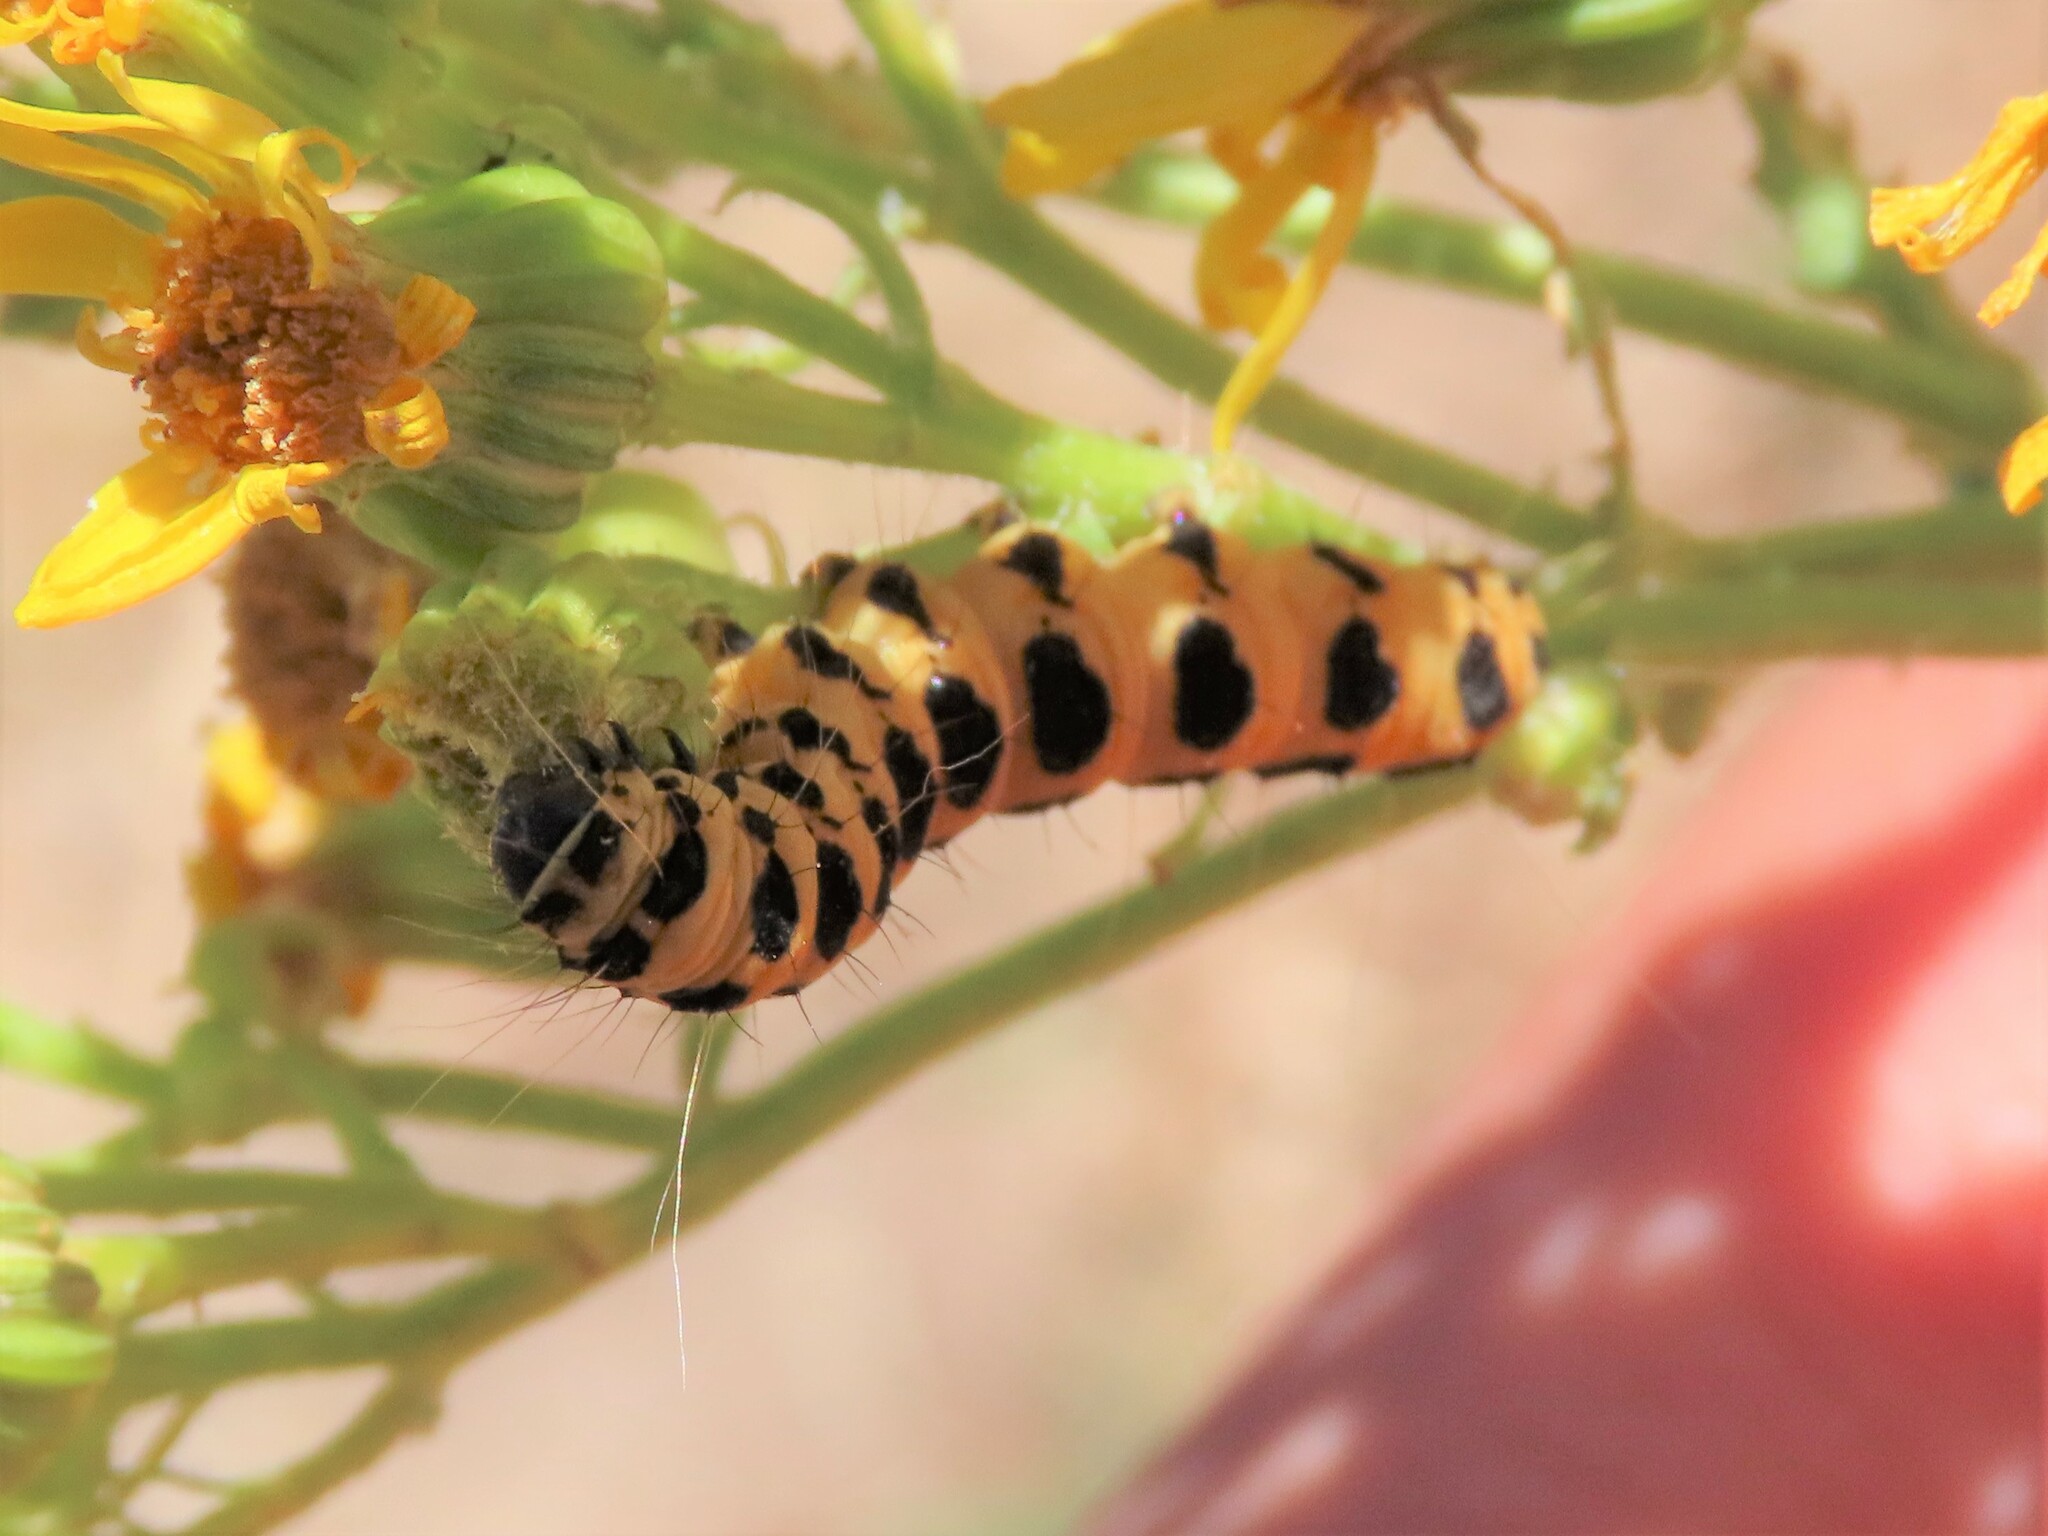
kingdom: Animalia
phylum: Arthropoda
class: Insecta
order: Lepidoptera
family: Erebidae
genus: Tyria
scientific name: Tyria jacobaeae
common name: Cinnabar
